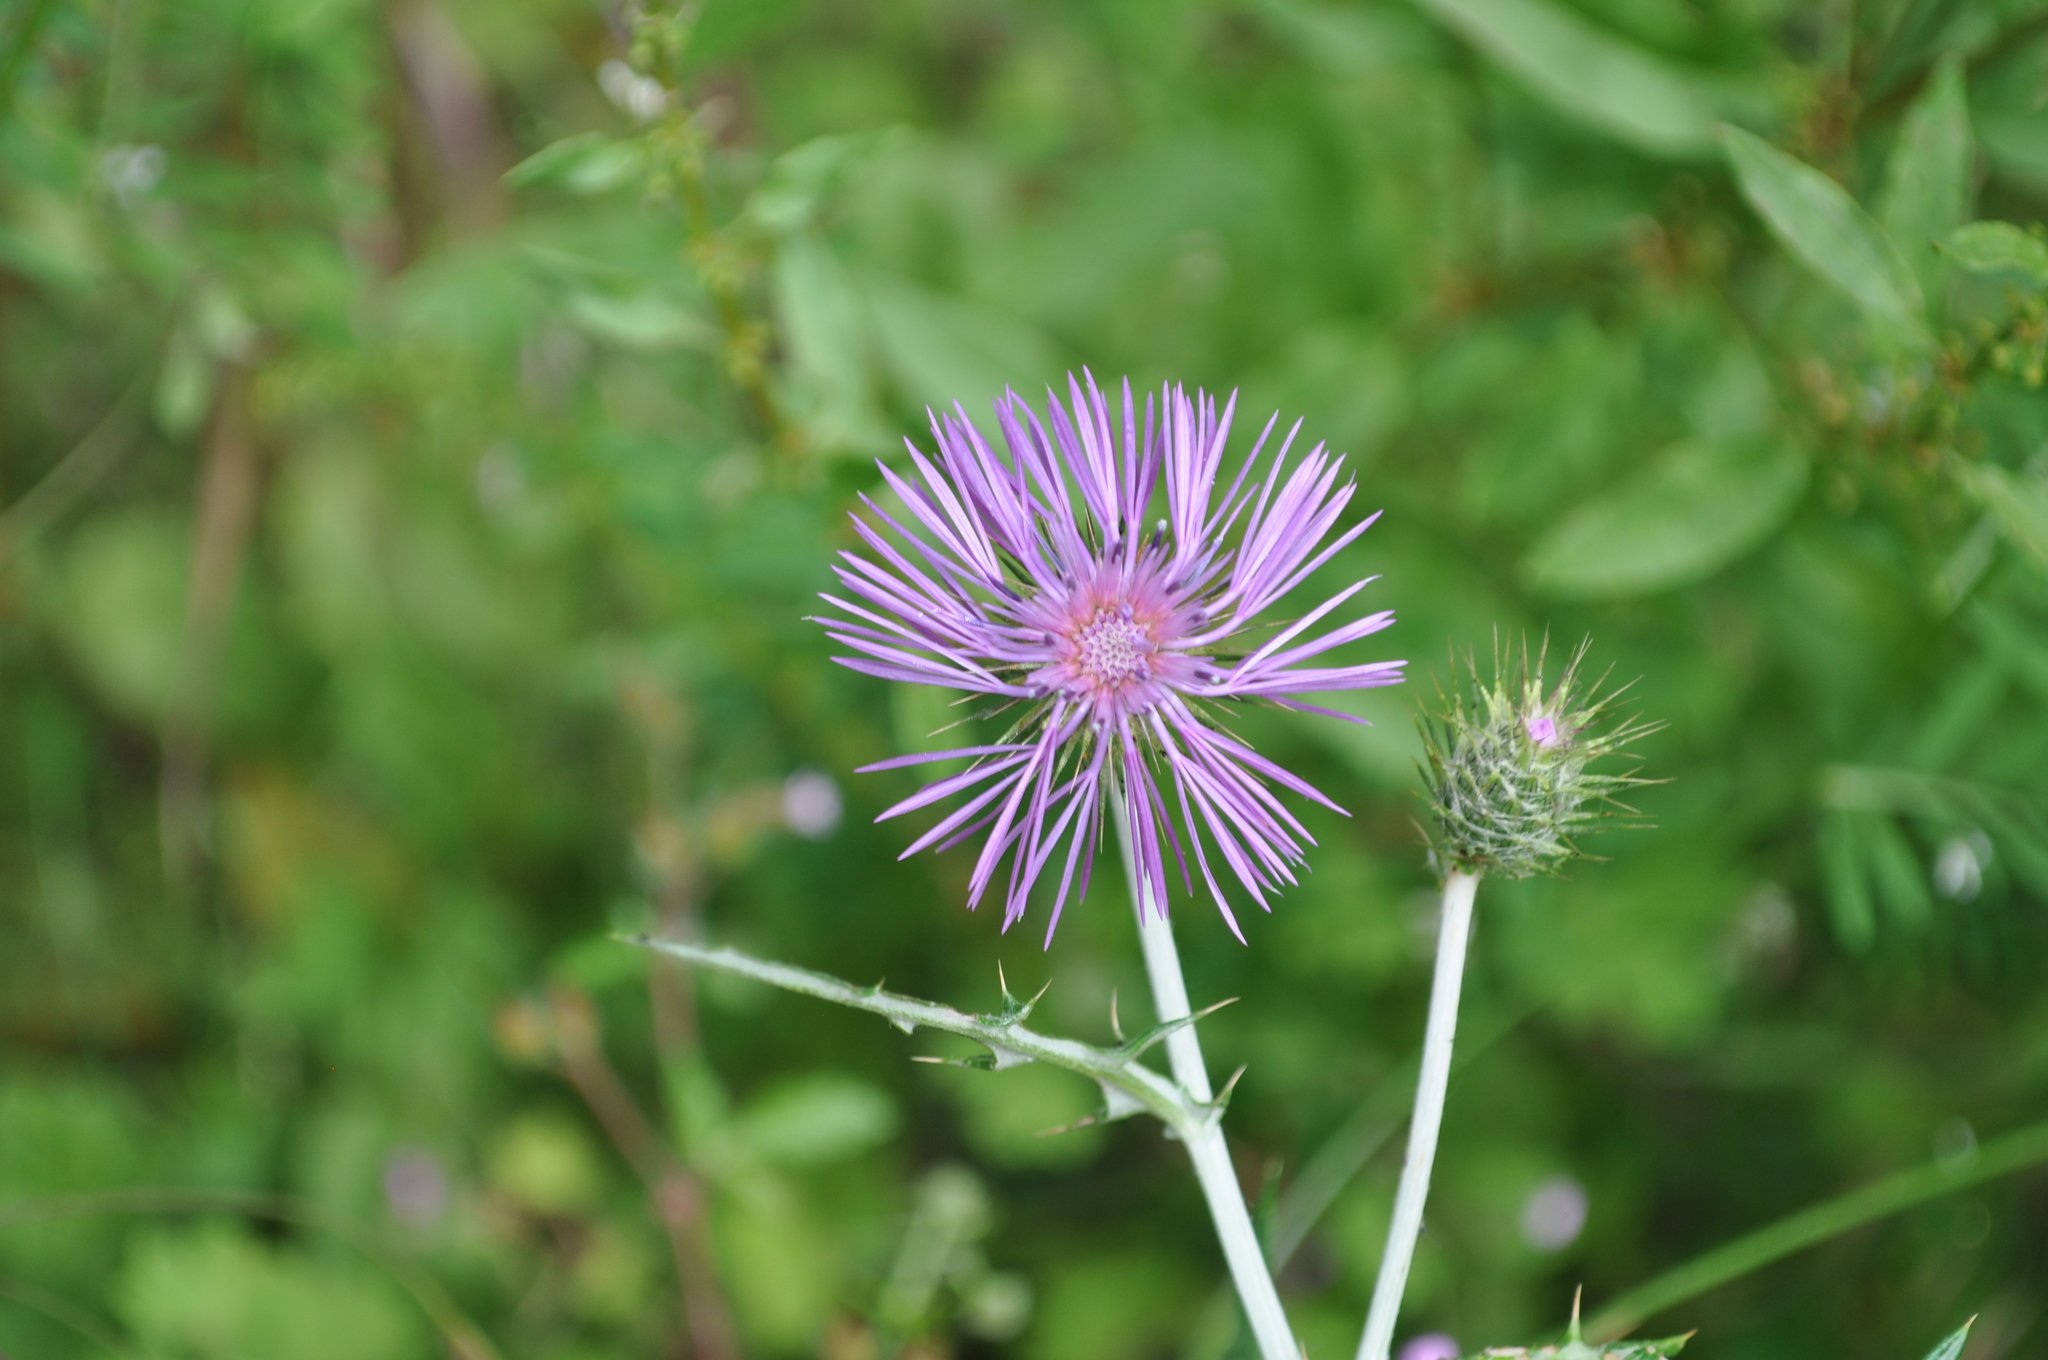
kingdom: Plantae
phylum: Tracheophyta
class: Magnoliopsida
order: Asterales
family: Asteraceae
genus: Galactites
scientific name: Galactites tomentosa
